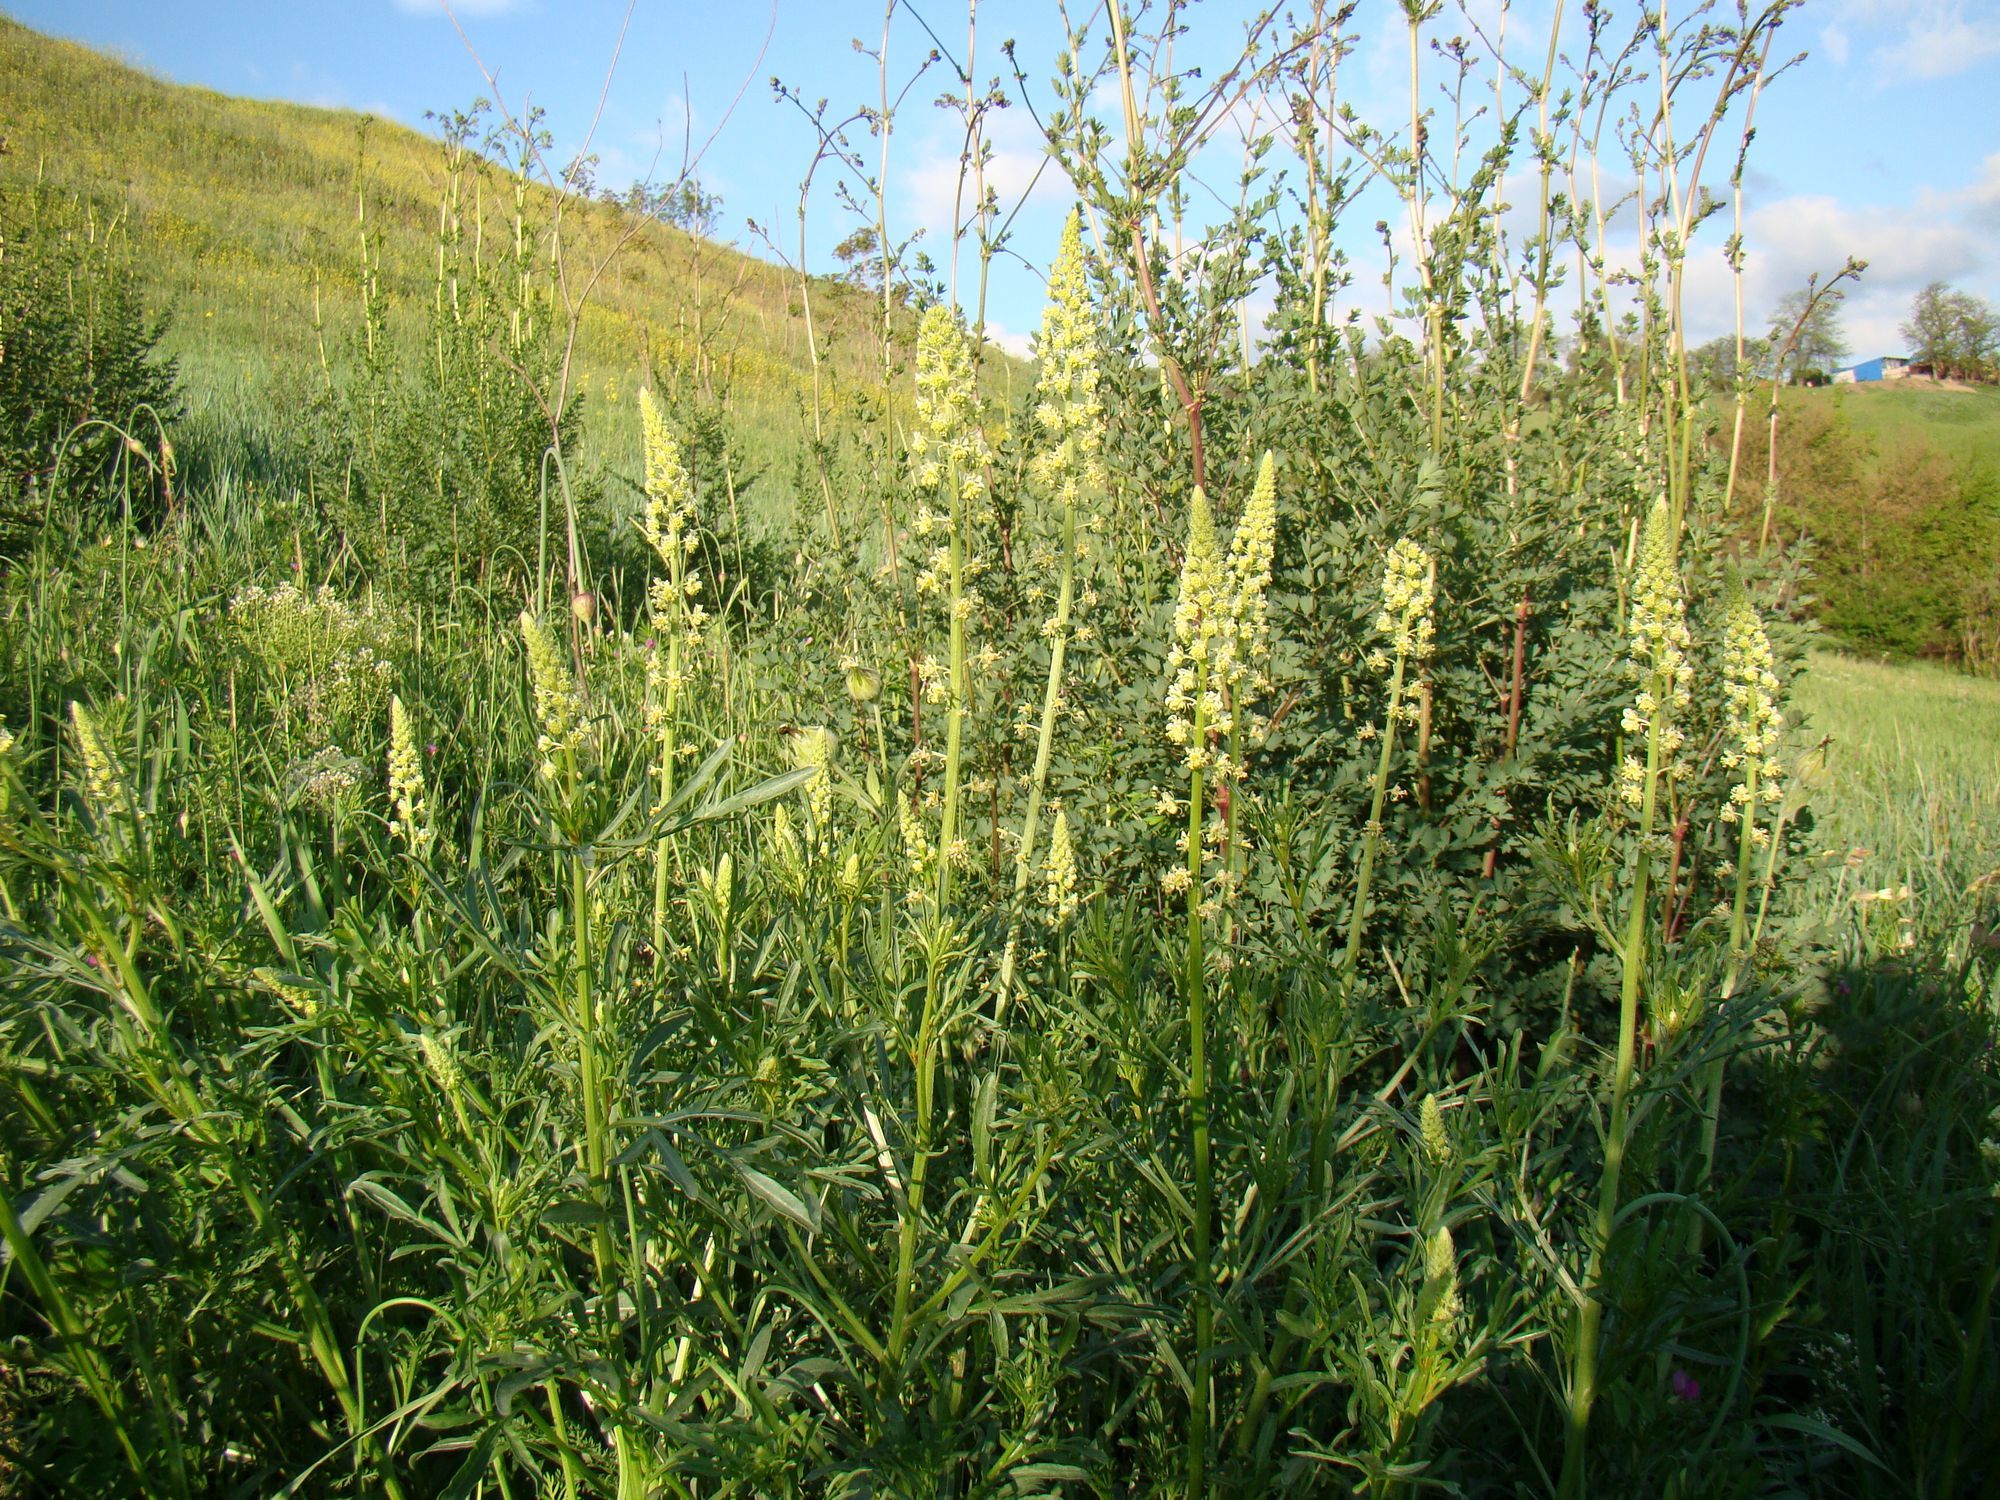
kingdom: Plantae
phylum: Tracheophyta
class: Magnoliopsida
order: Brassicales
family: Resedaceae
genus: Reseda
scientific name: Reseda lutea
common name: Wild mignonette
